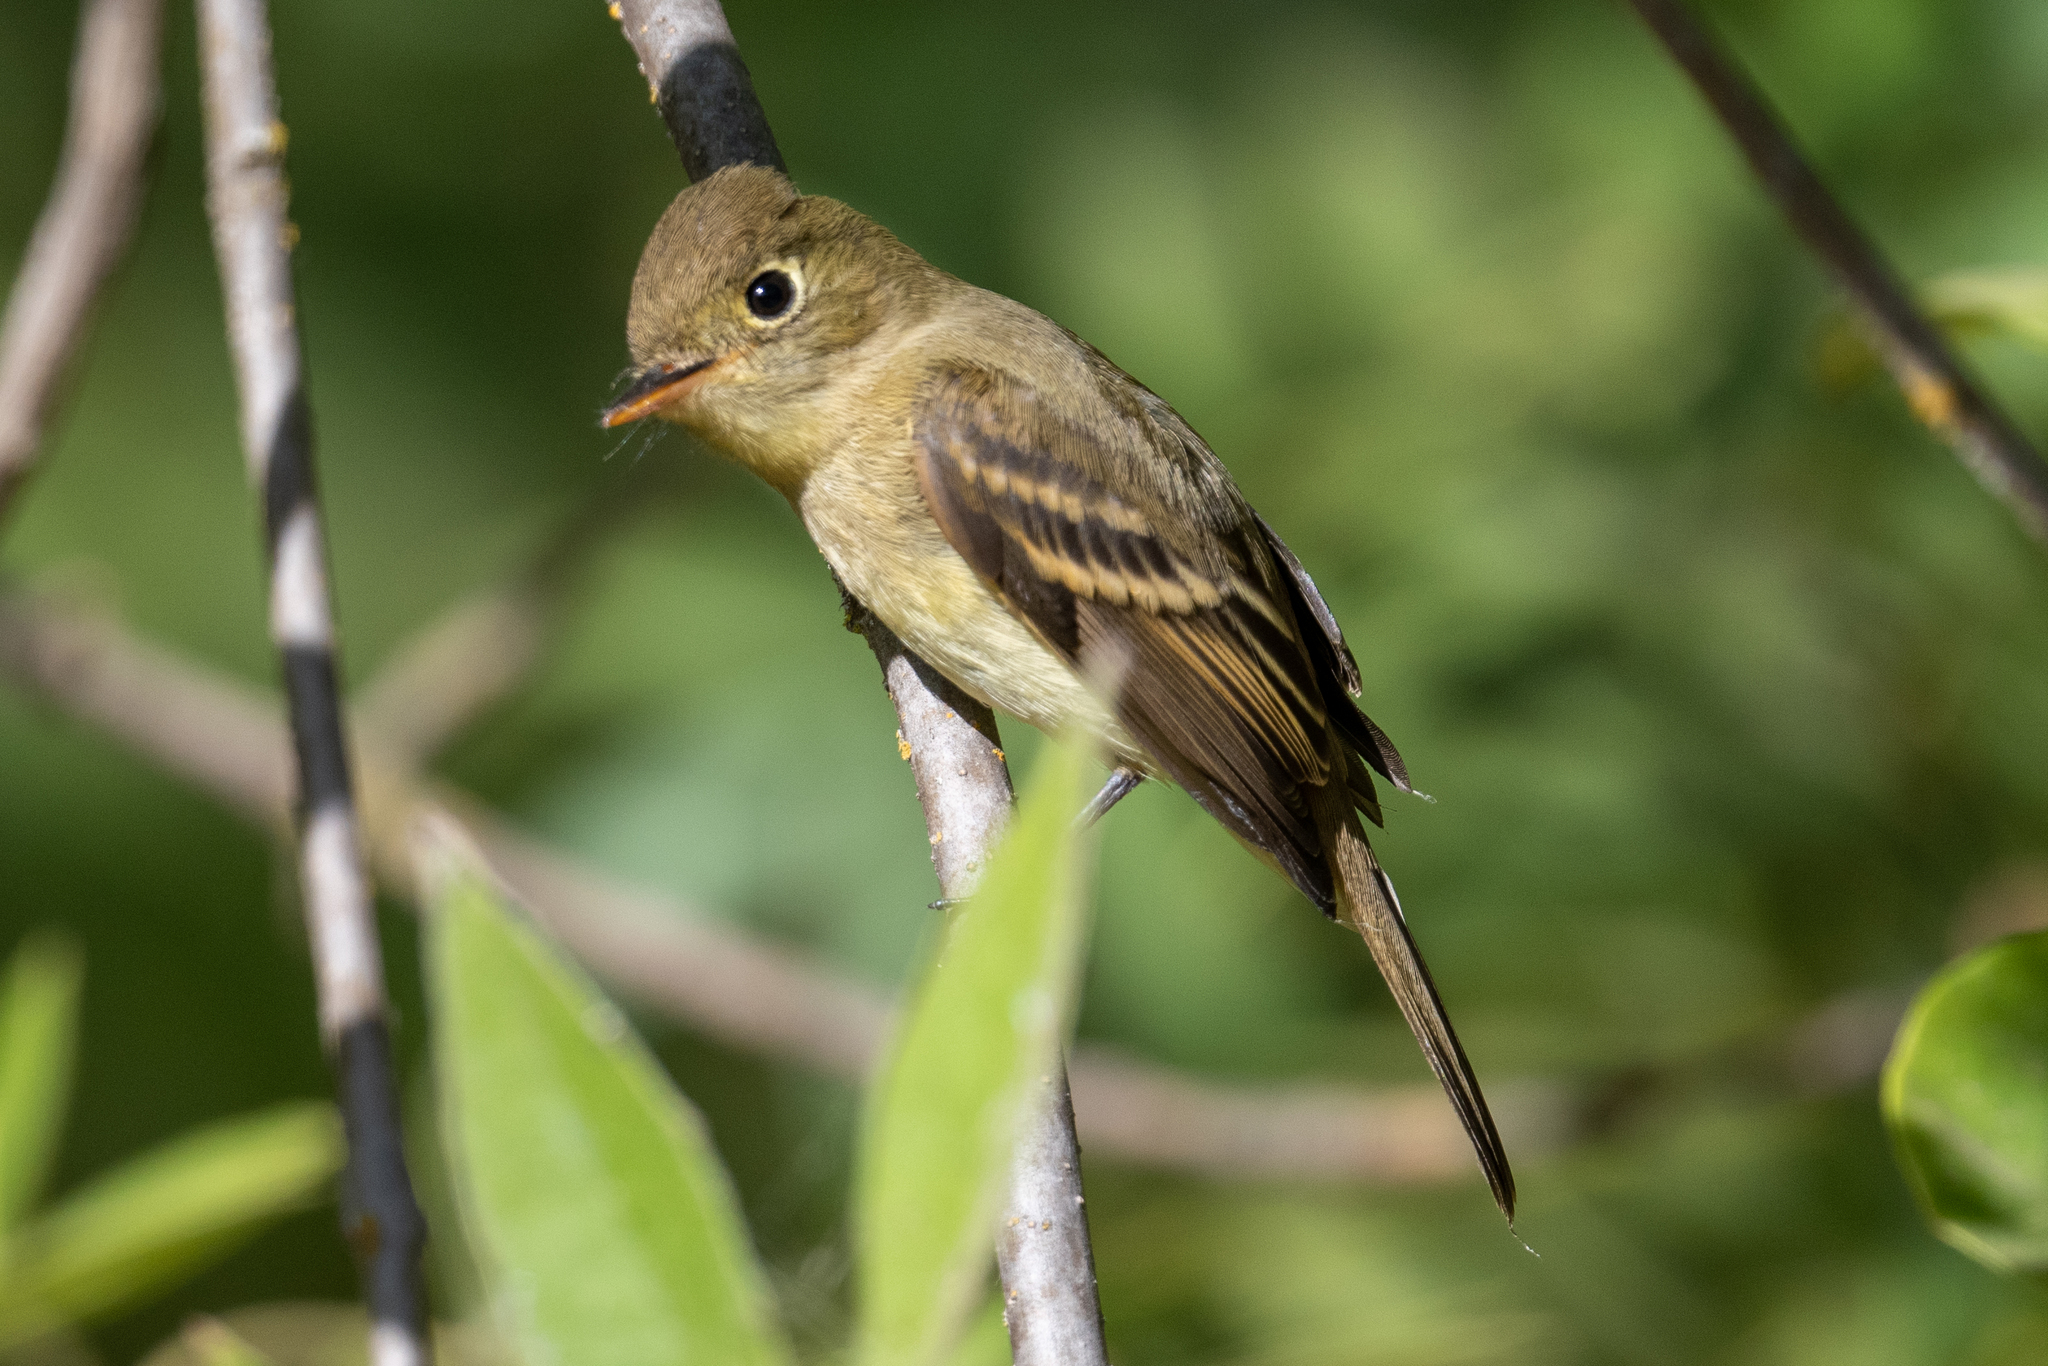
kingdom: Animalia
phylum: Chordata
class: Aves
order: Passeriformes
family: Tyrannidae
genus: Empidonax
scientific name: Empidonax difficilis
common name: Pacific-slope flycatcher
